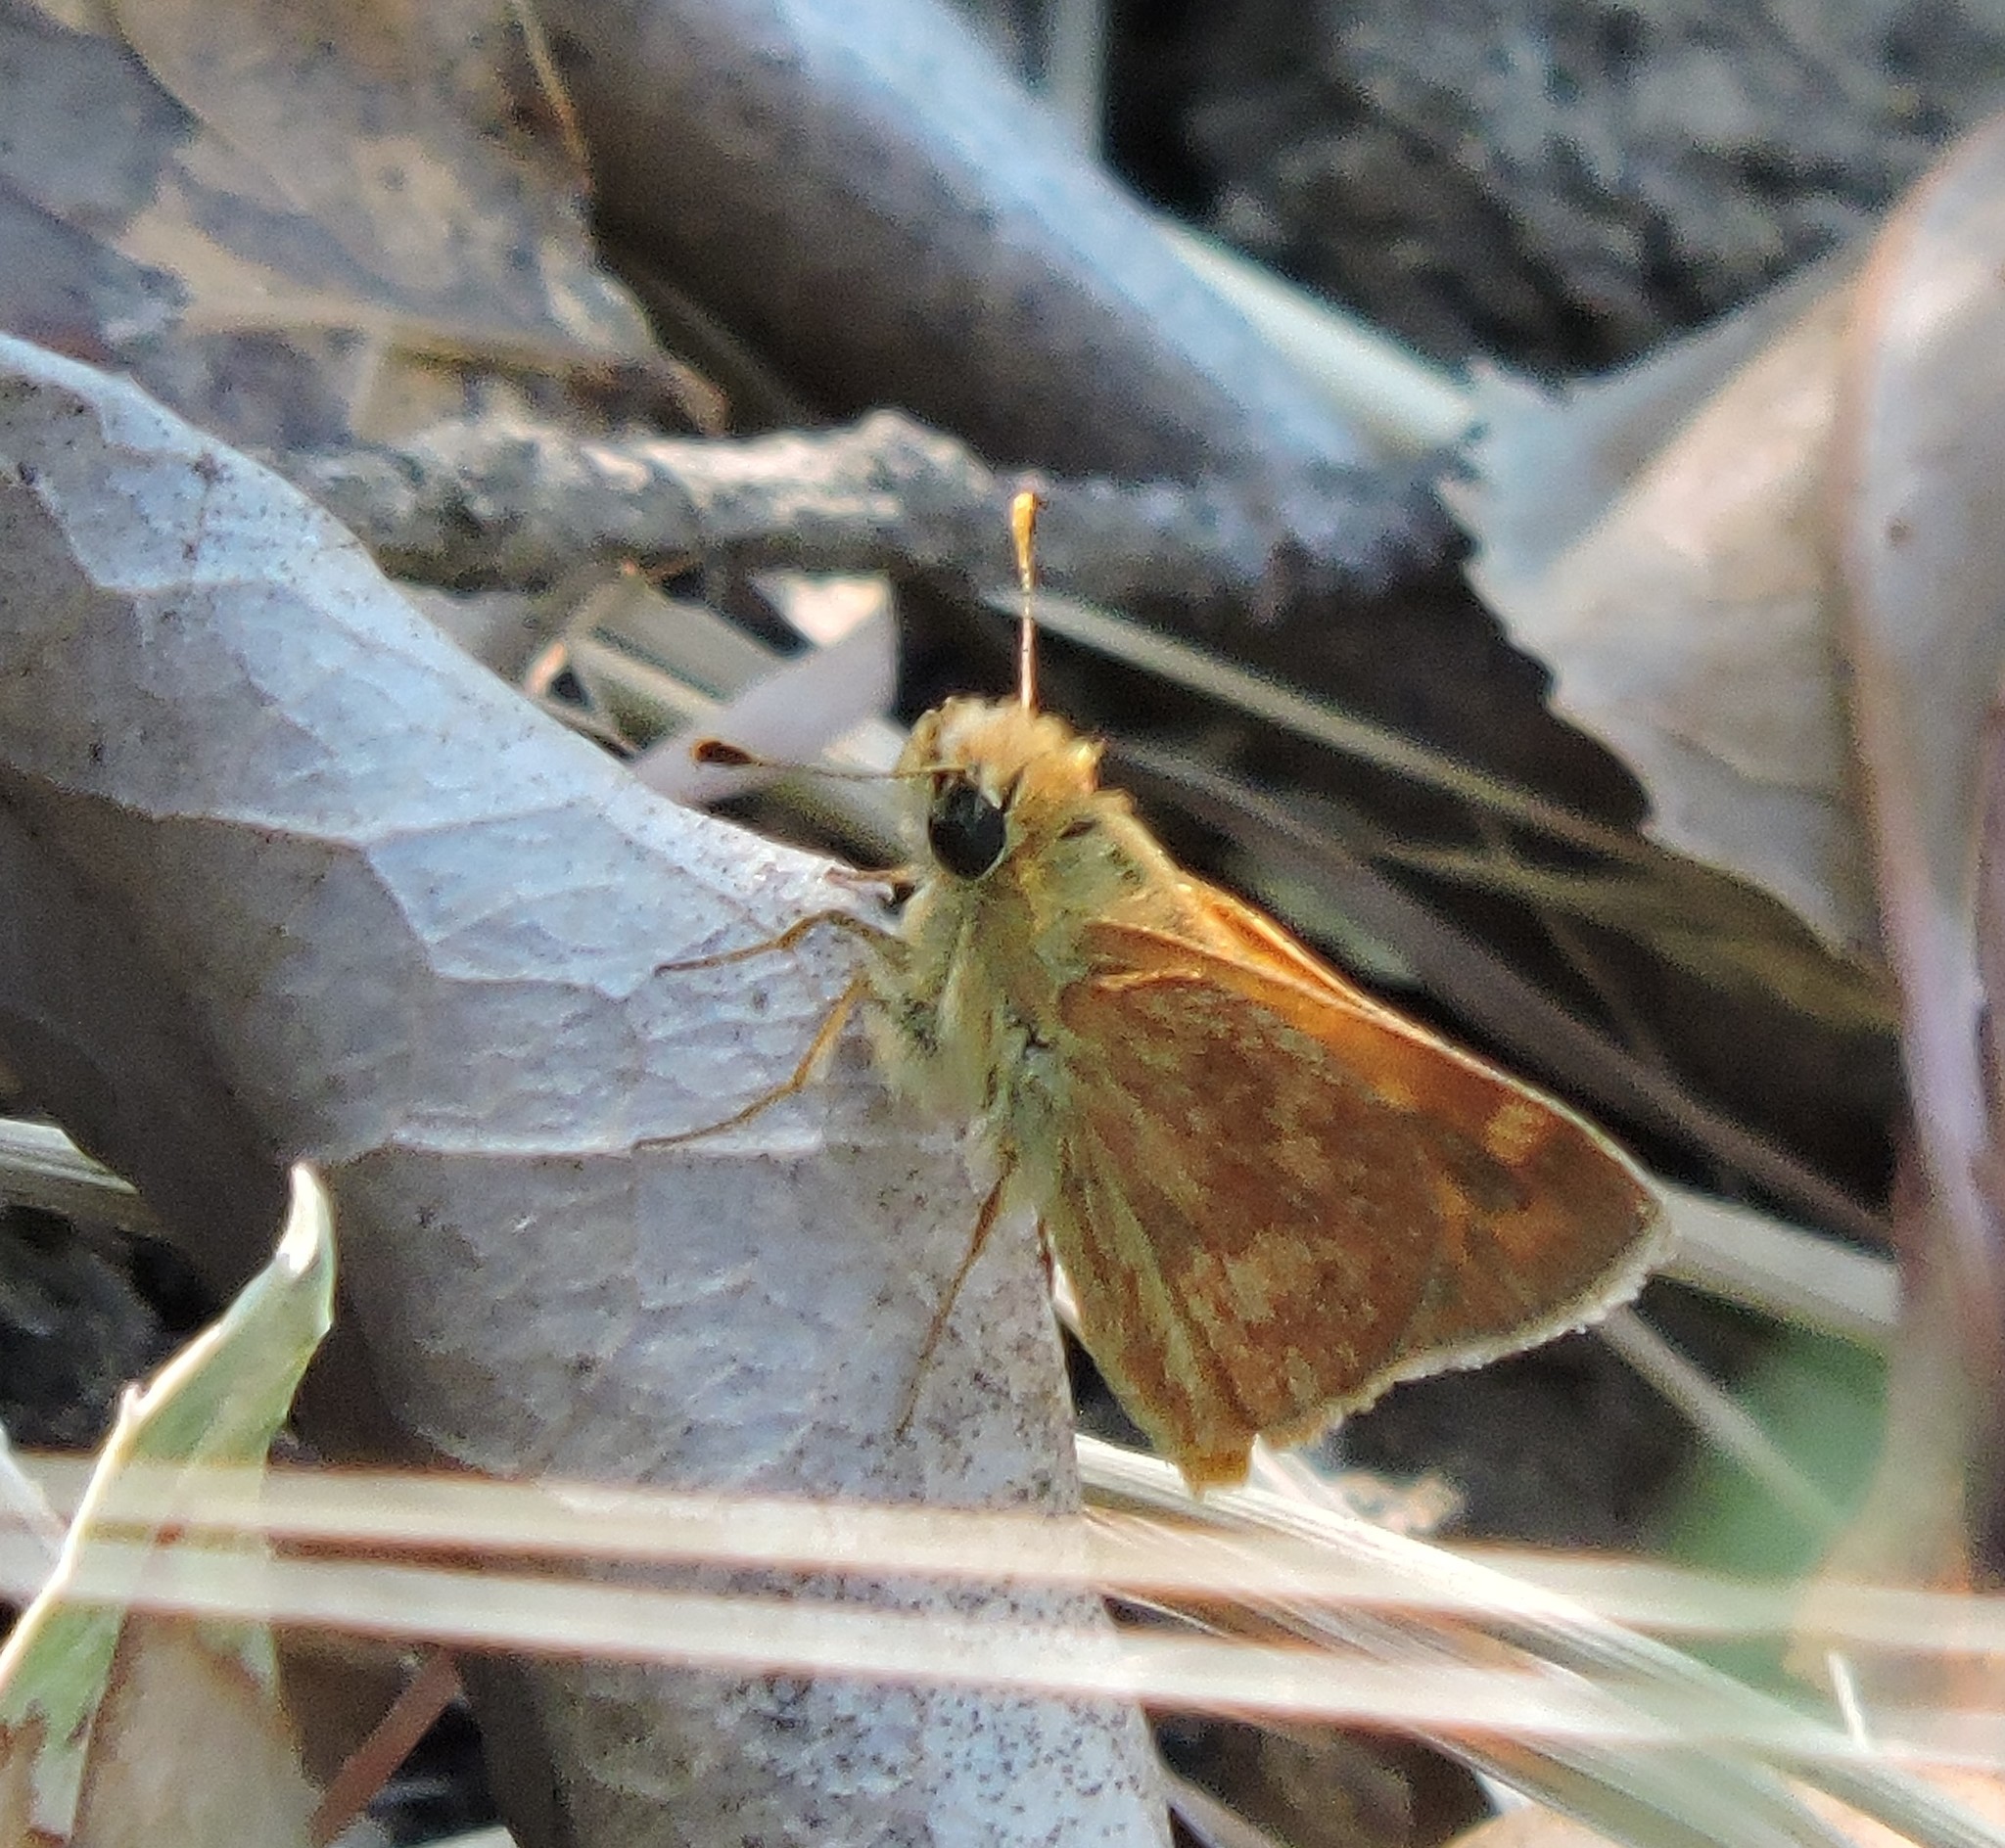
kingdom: Animalia
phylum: Arthropoda
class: Insecta
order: Lepidoptera
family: Hesperiidae
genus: Ochlodes
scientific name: Ochlodes sylvanoides
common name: Woodland skipper
